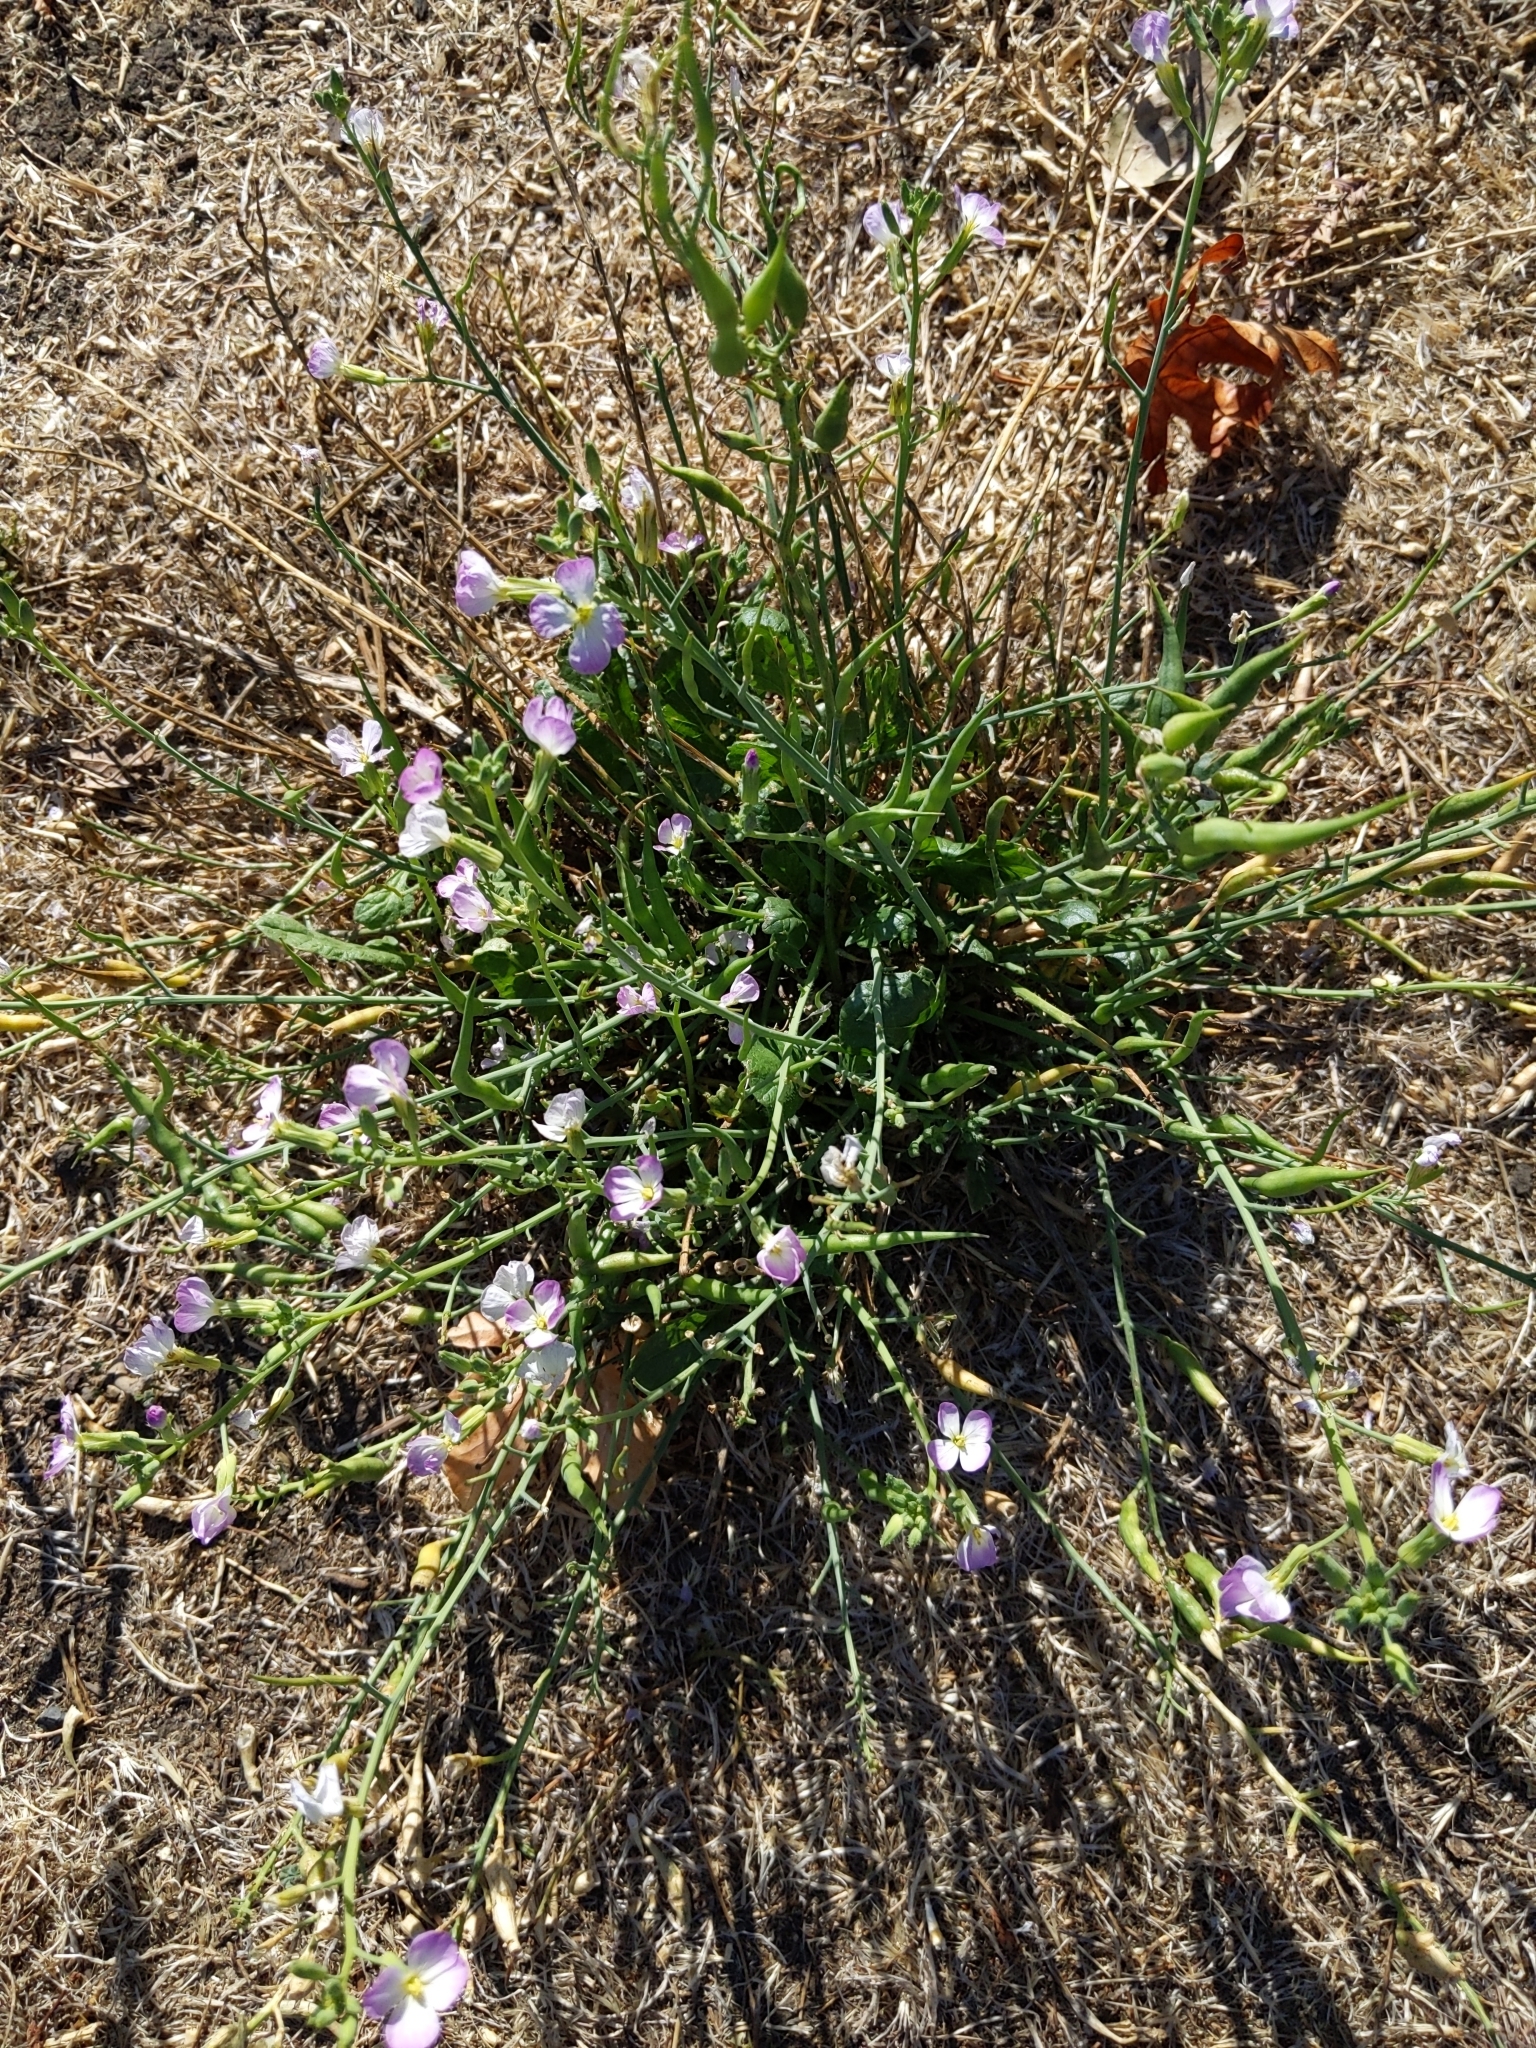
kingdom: Plantae
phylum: Tracheophyta
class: Magnoliopsida
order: Brassicales
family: Brassicaceae
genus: Raphanus
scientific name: Raphanus sativus
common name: Cultivated radish
